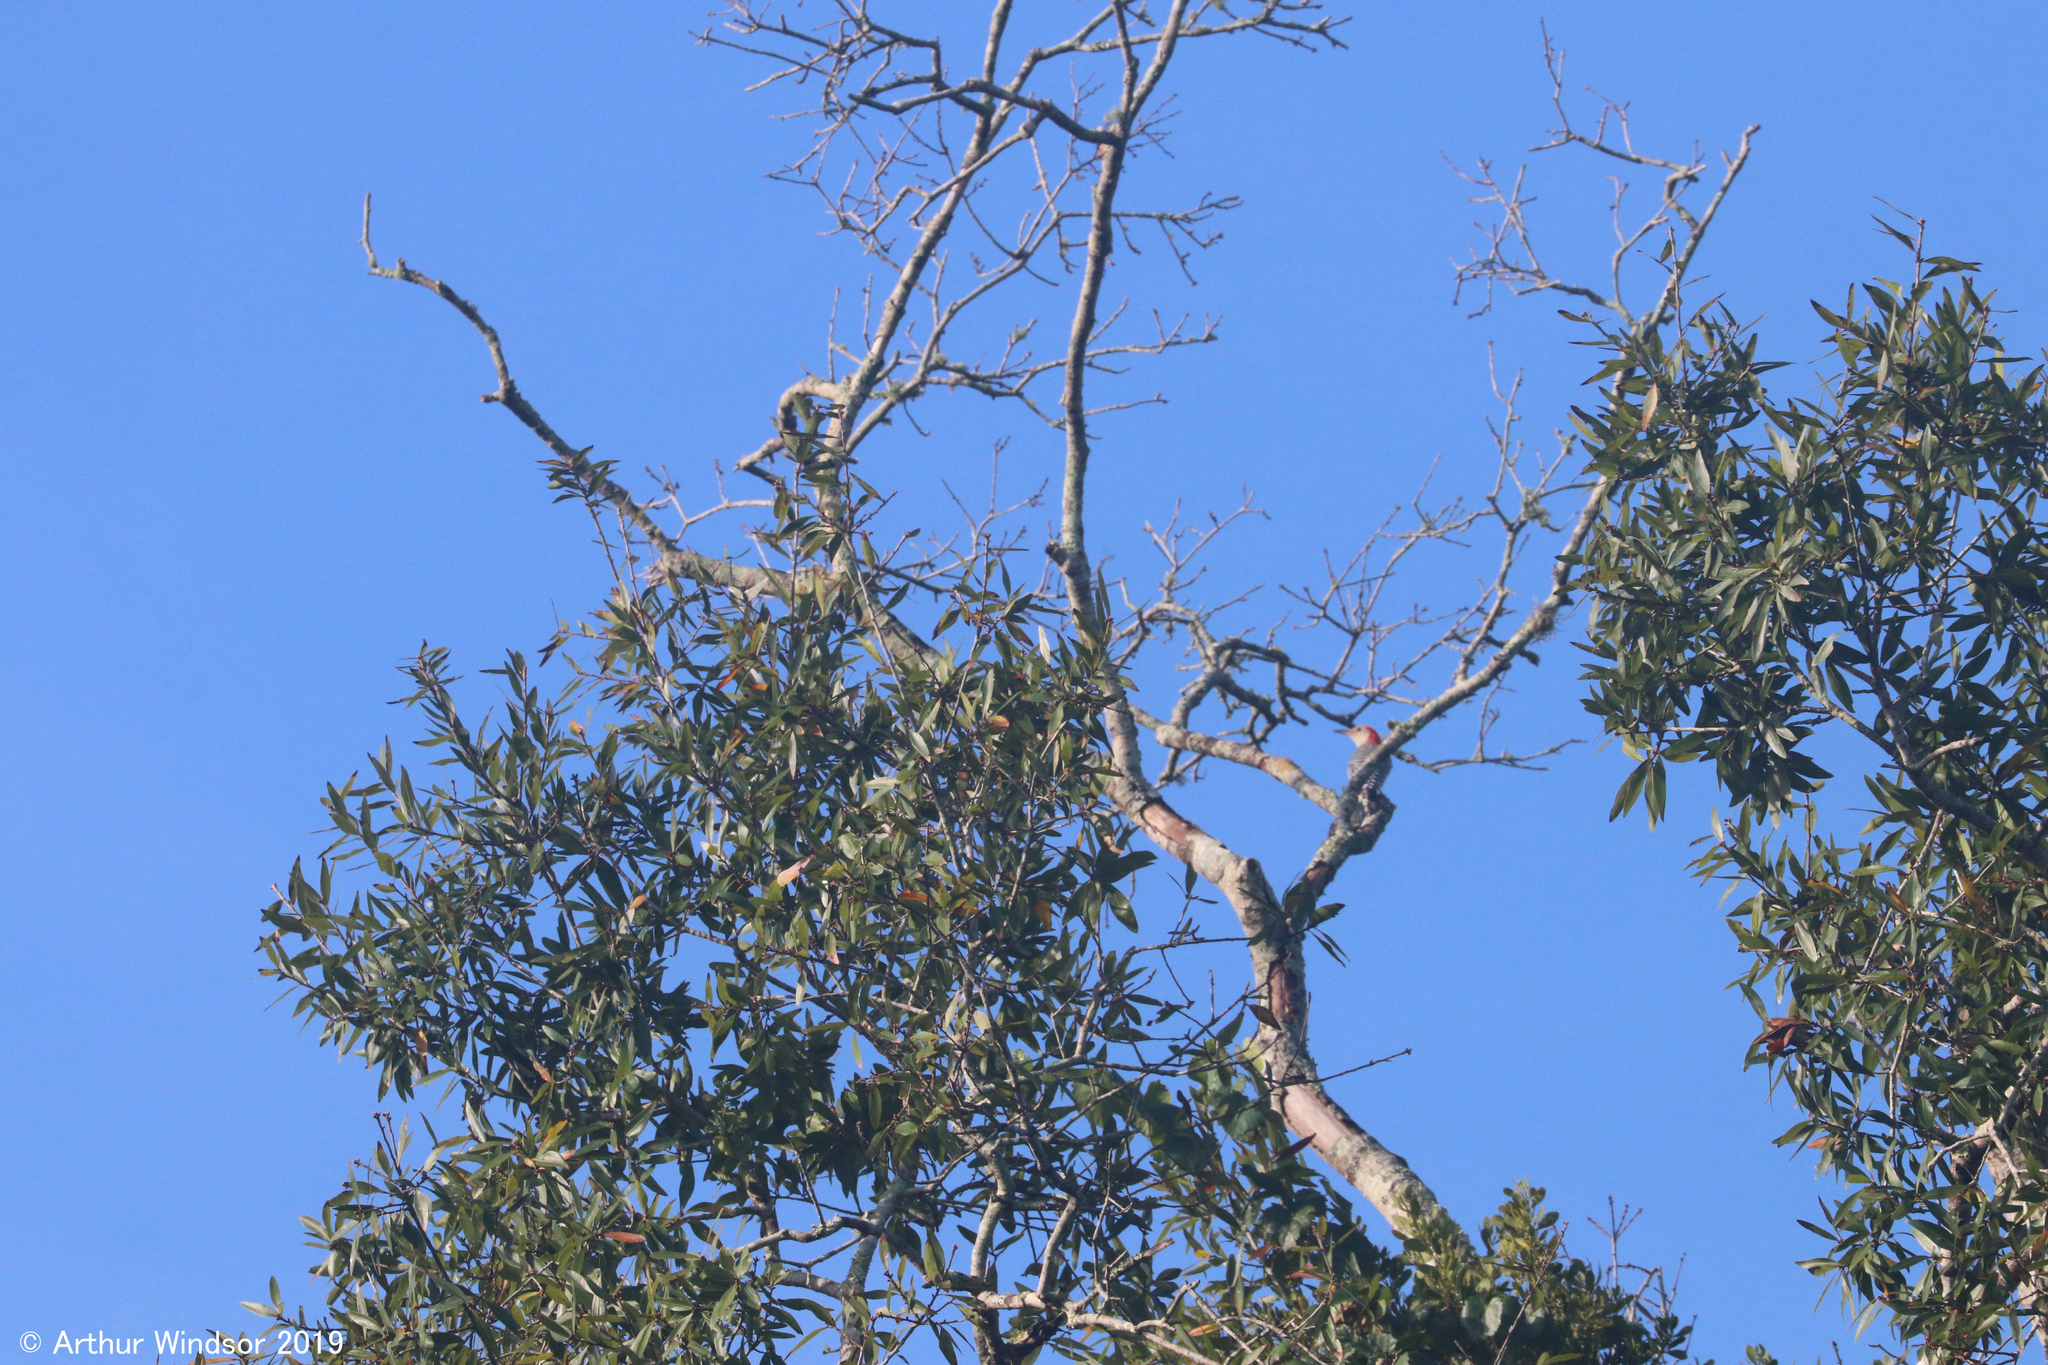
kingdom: Animalia
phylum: Chordata
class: Aves
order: Piciformes
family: Picidae
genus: Melanerpes
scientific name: Melanerpes carolinus
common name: Red-bellied woodpecker
